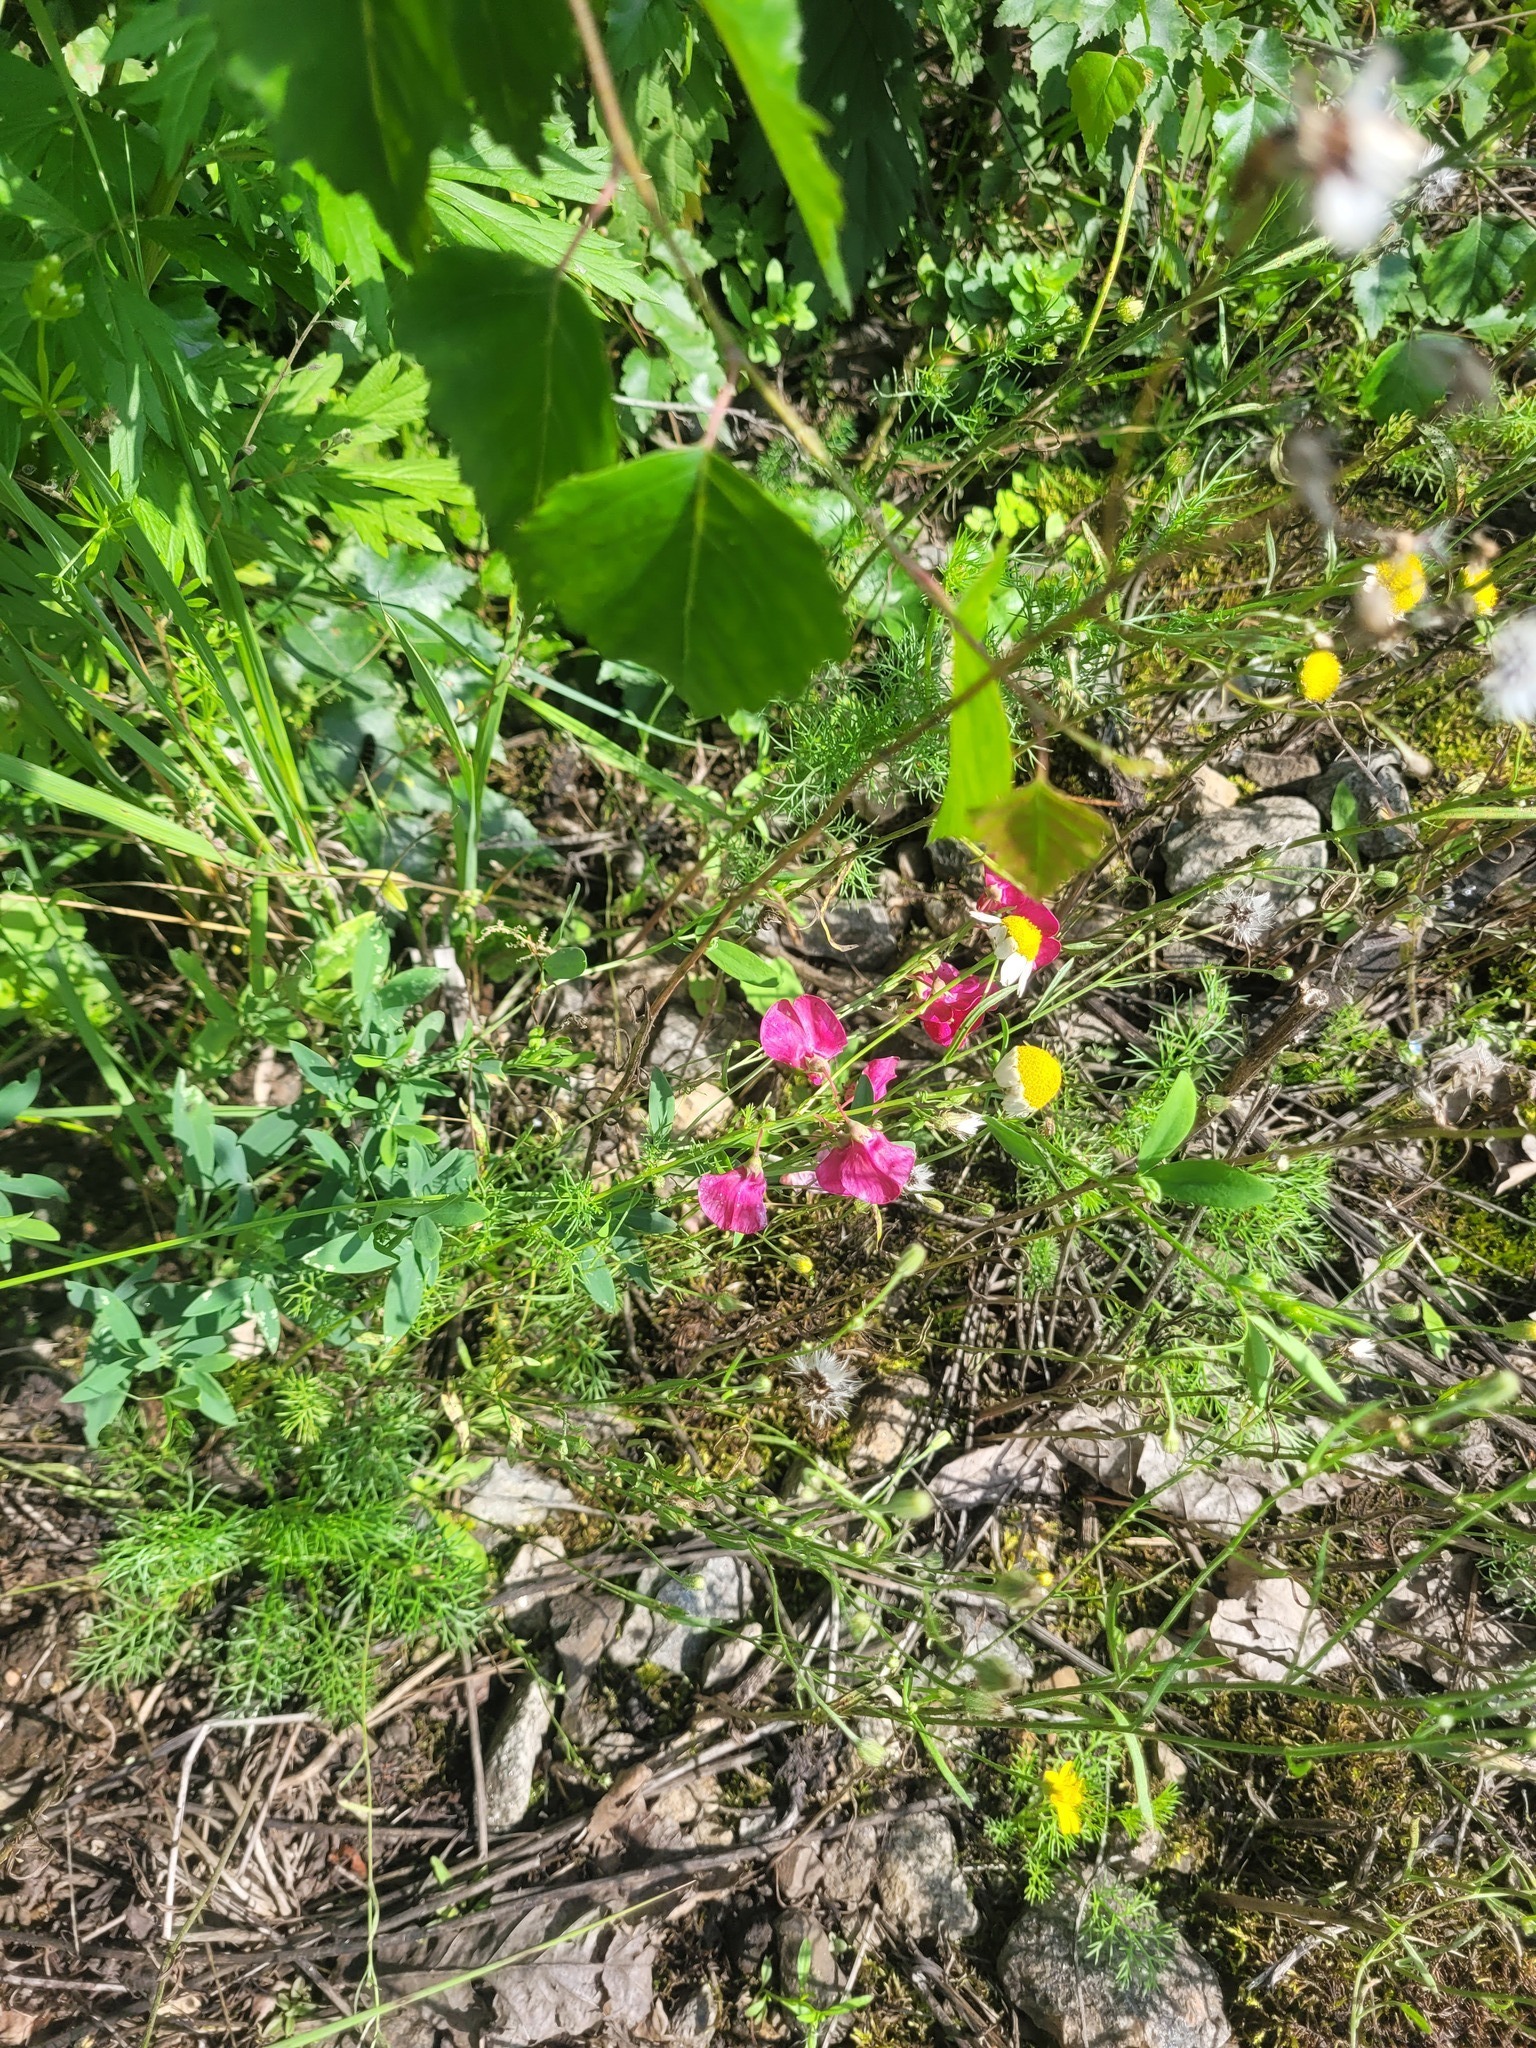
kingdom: Plantae
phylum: Tracheophyta
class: Magnoliopsida
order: Fabales
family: Fabaceae
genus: Lathyrus
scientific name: Lathyrus tuberosus
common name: Tuberous pea
